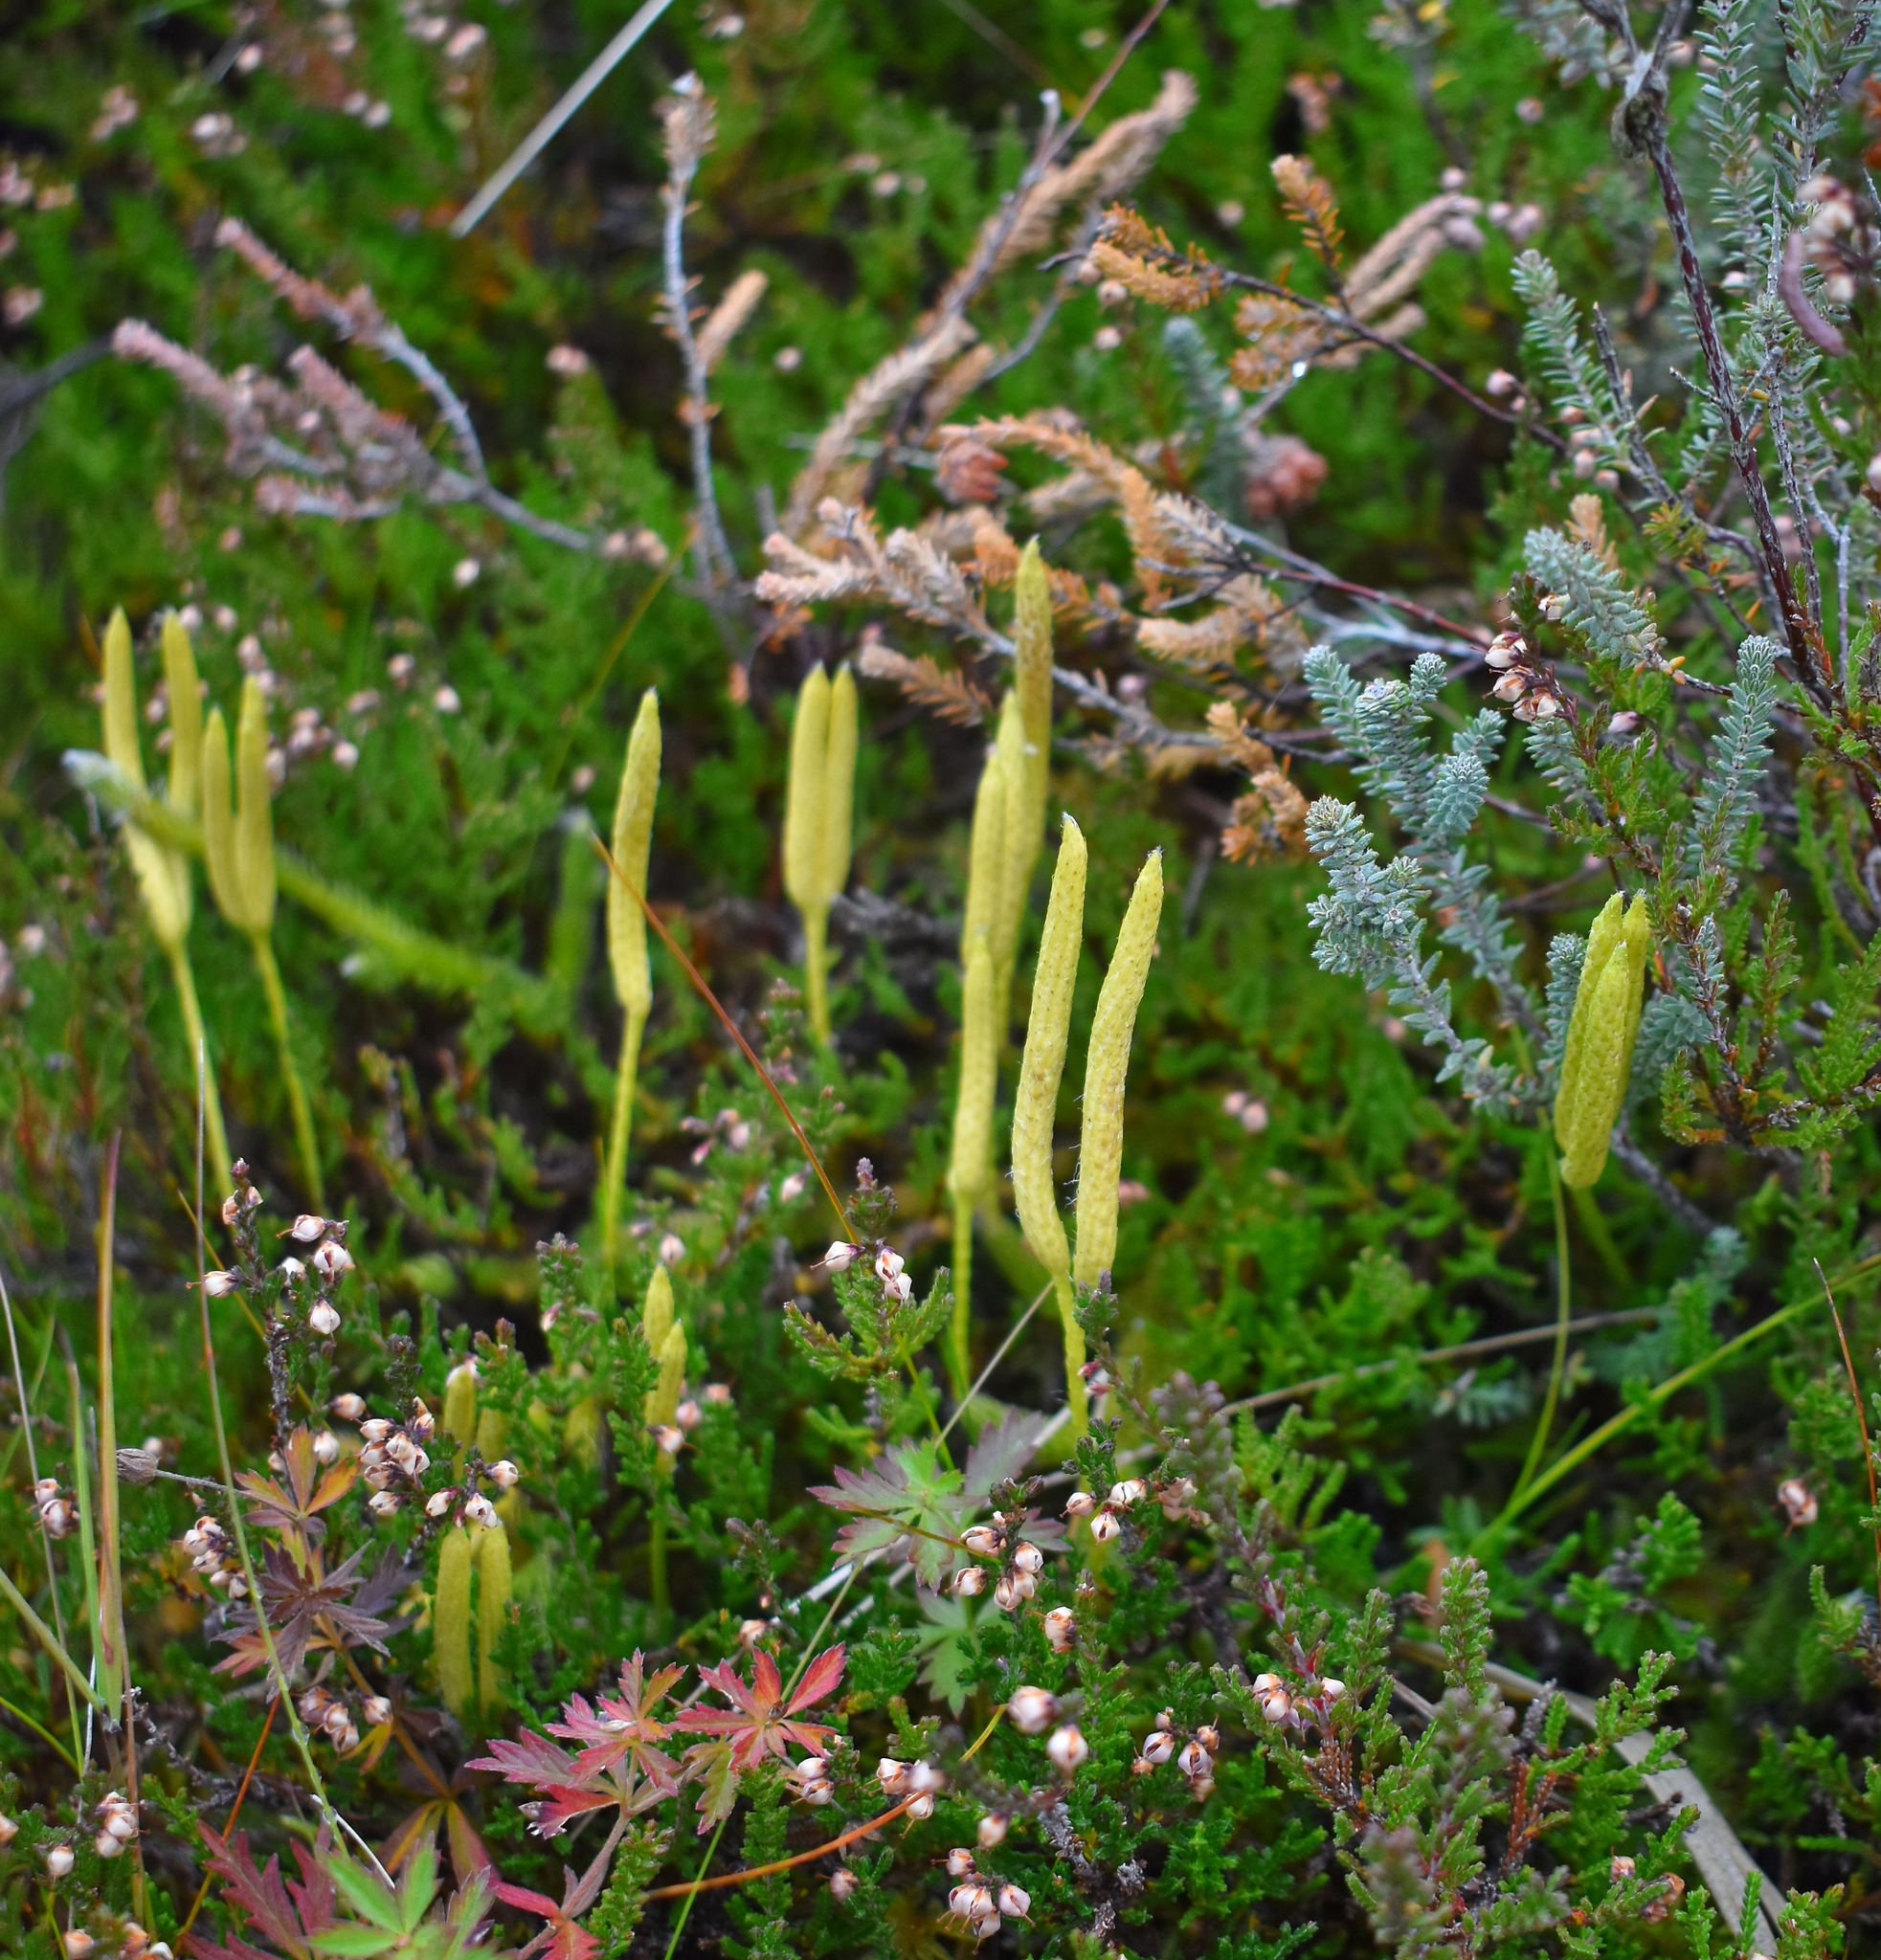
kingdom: Plantae
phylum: Tracheophyta
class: Lycopodiopsida
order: Lycopodiales
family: Lycopodiaceae
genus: Lycopodium
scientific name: Lycopodium clavatum
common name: Stag's-horn clubmoss
